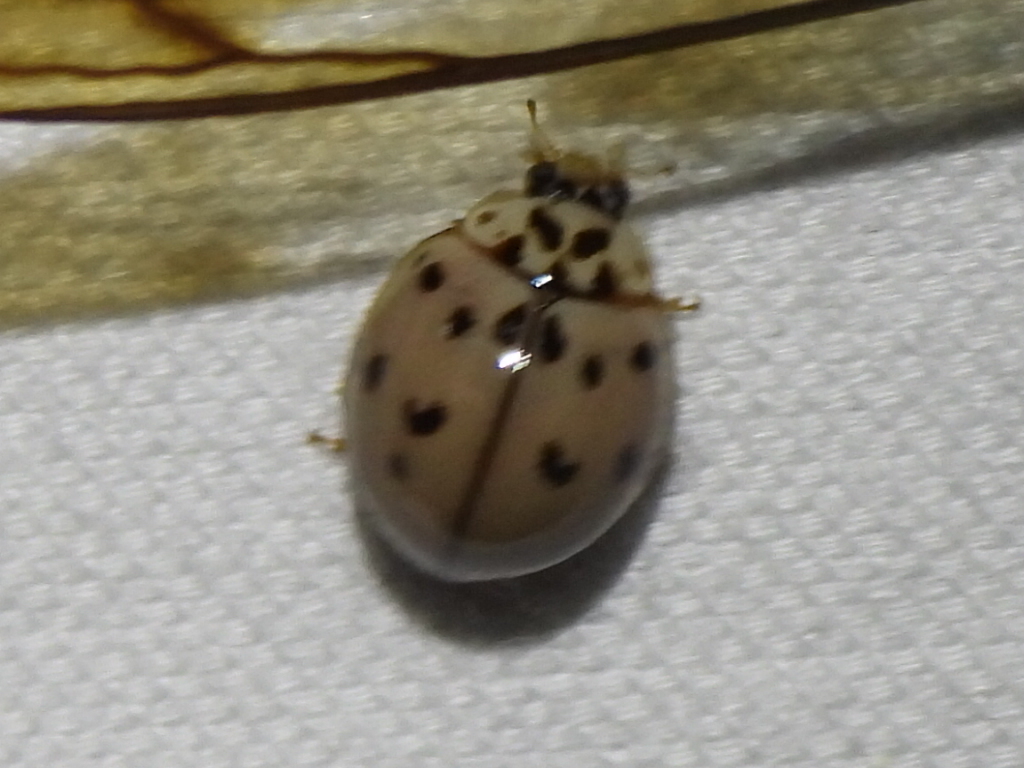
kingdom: Animalia
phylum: Arthropoda
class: Insecta
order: Coleoptera
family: Coccinellidae
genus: Olla
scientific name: Olla v-nigrum
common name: Ashy gray lady beetle
